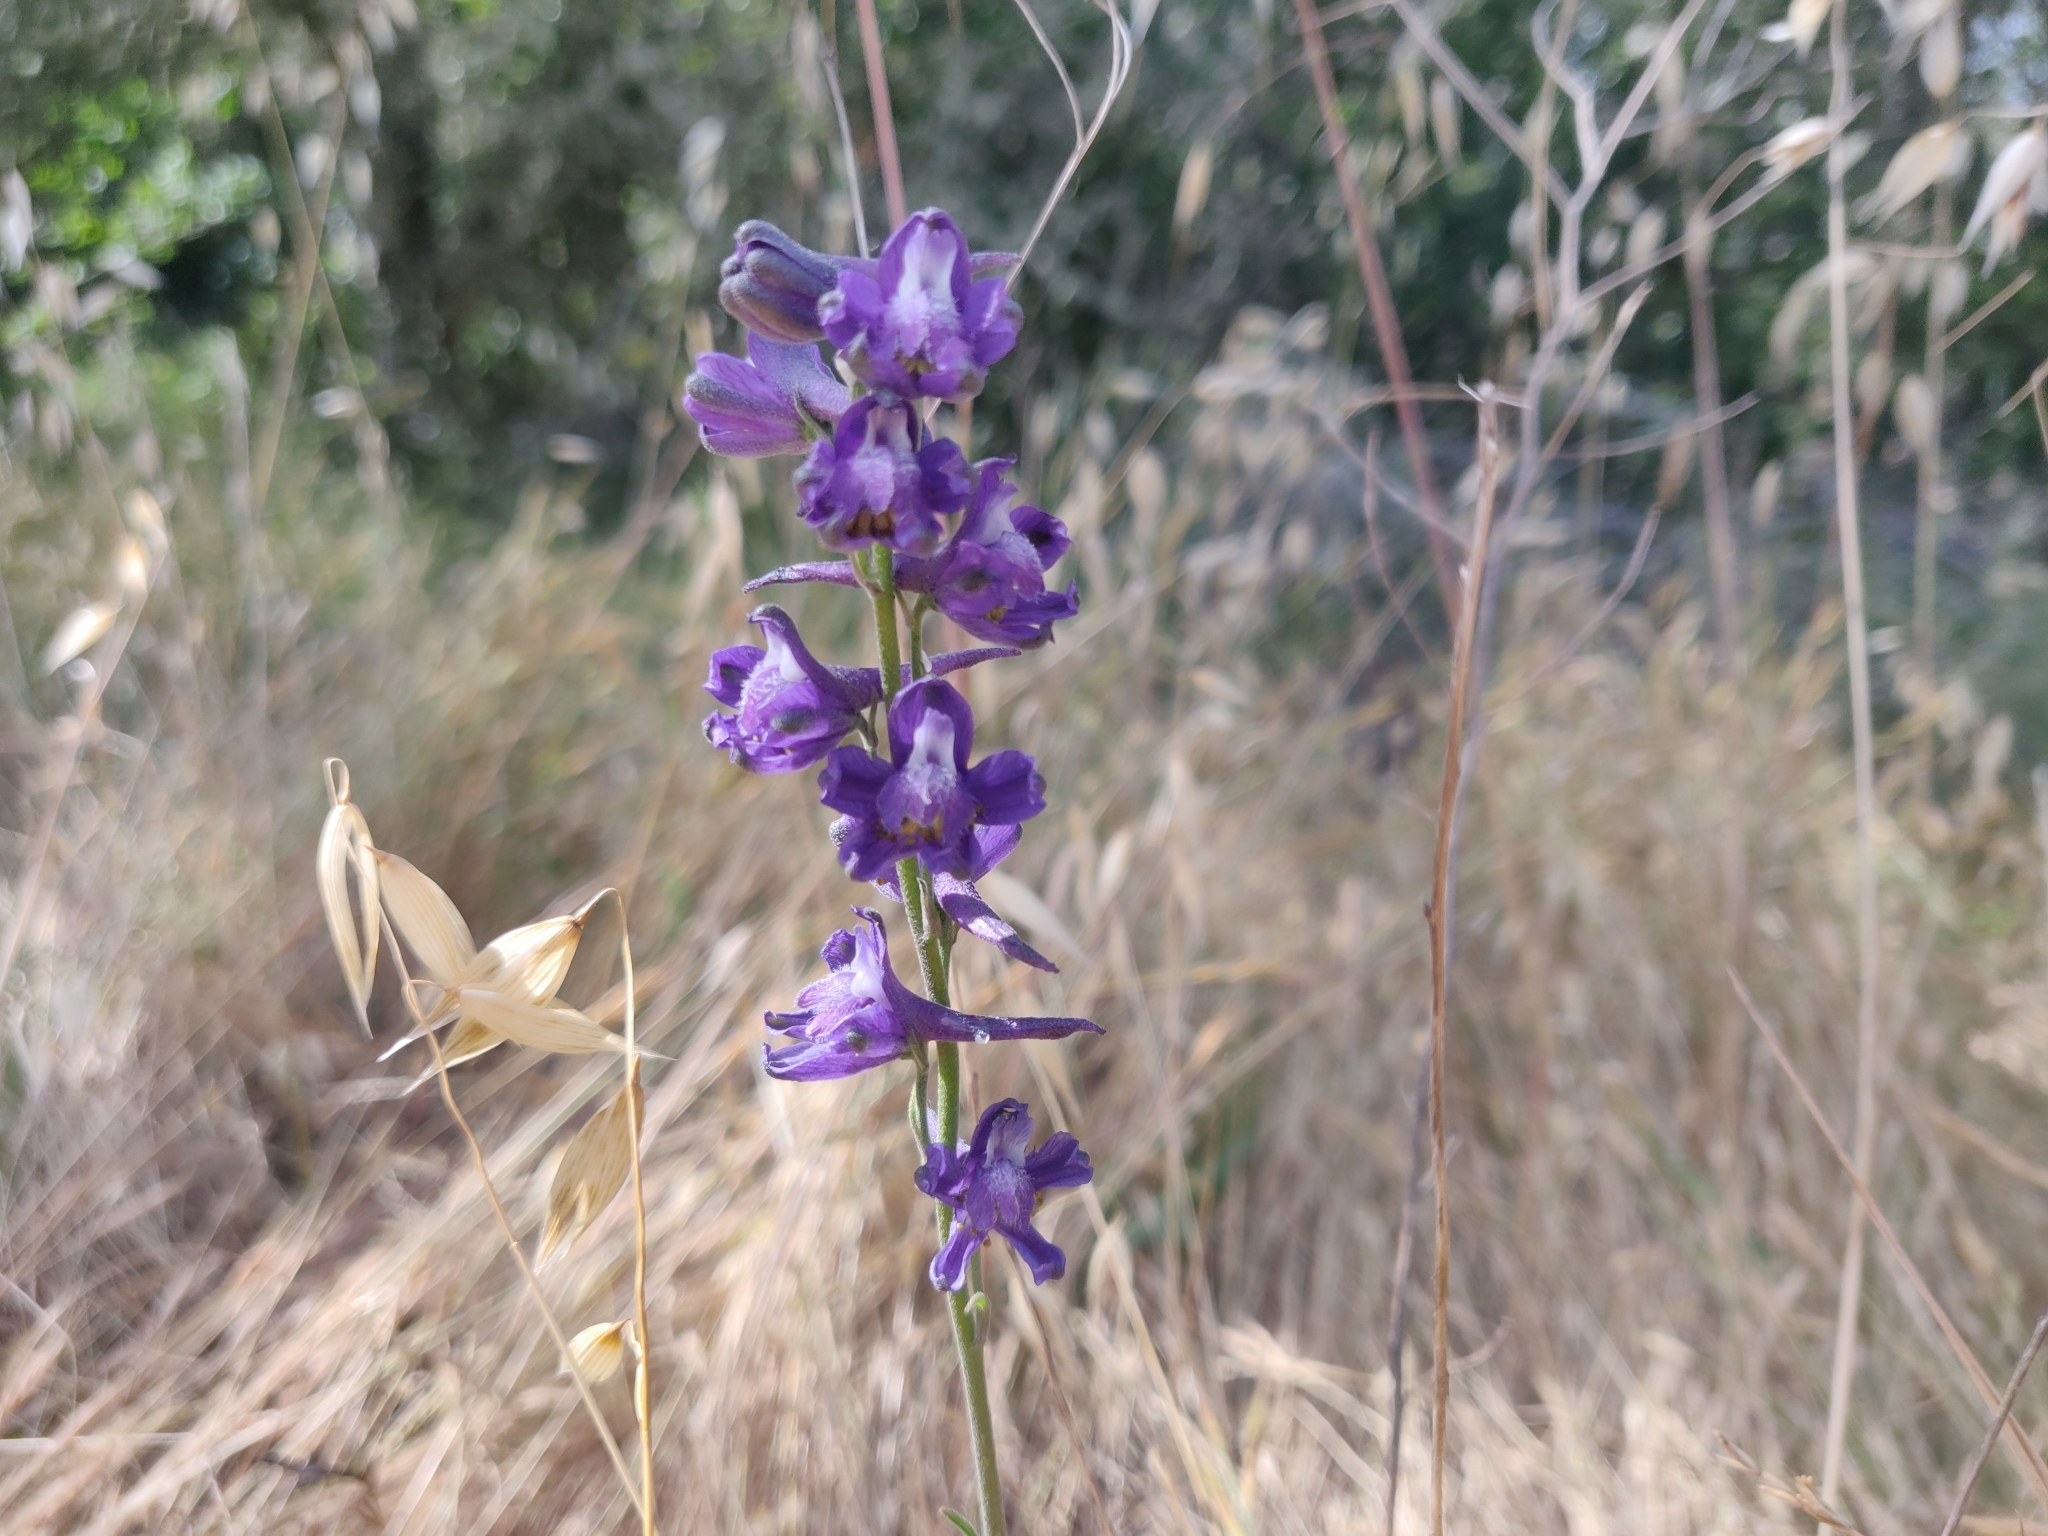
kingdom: Plantae
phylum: Tracheophyta
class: Magnoliopsida
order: Ranunculales
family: Ranunculaceae
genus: Delphinium
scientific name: Delphinium hesperium
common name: Western larkspur
